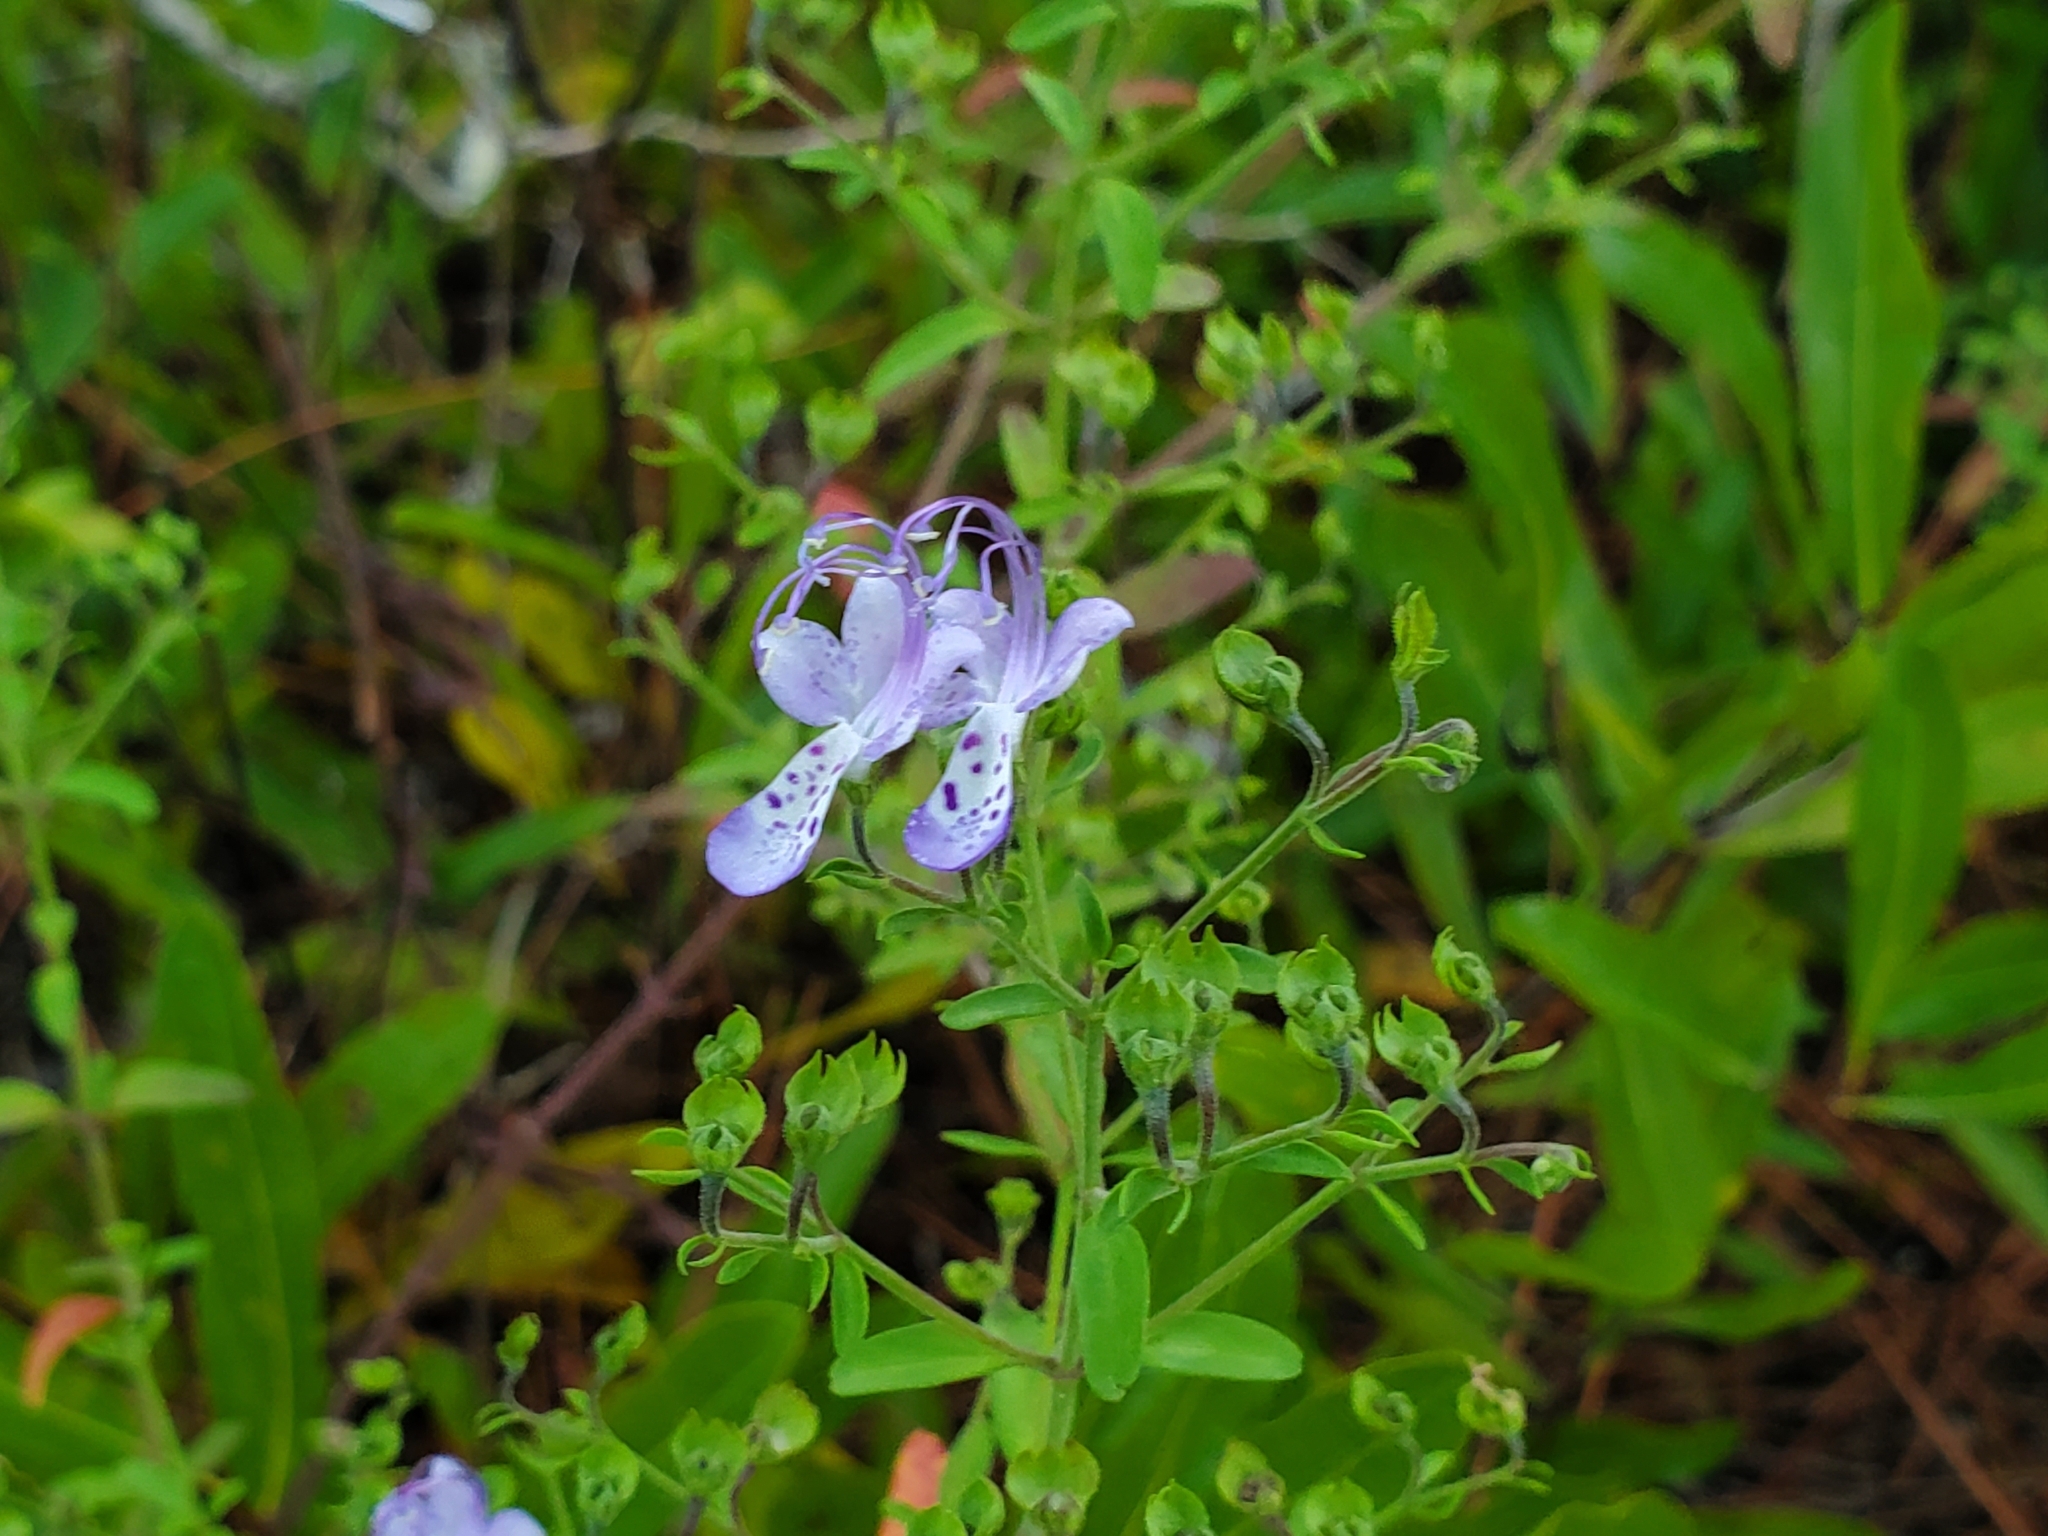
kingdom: Plantae
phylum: Tracheophyta
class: Magnoliopsida
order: Lamiales
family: Lamiaceae
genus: Trichostema
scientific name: Trichostema fruticosum
